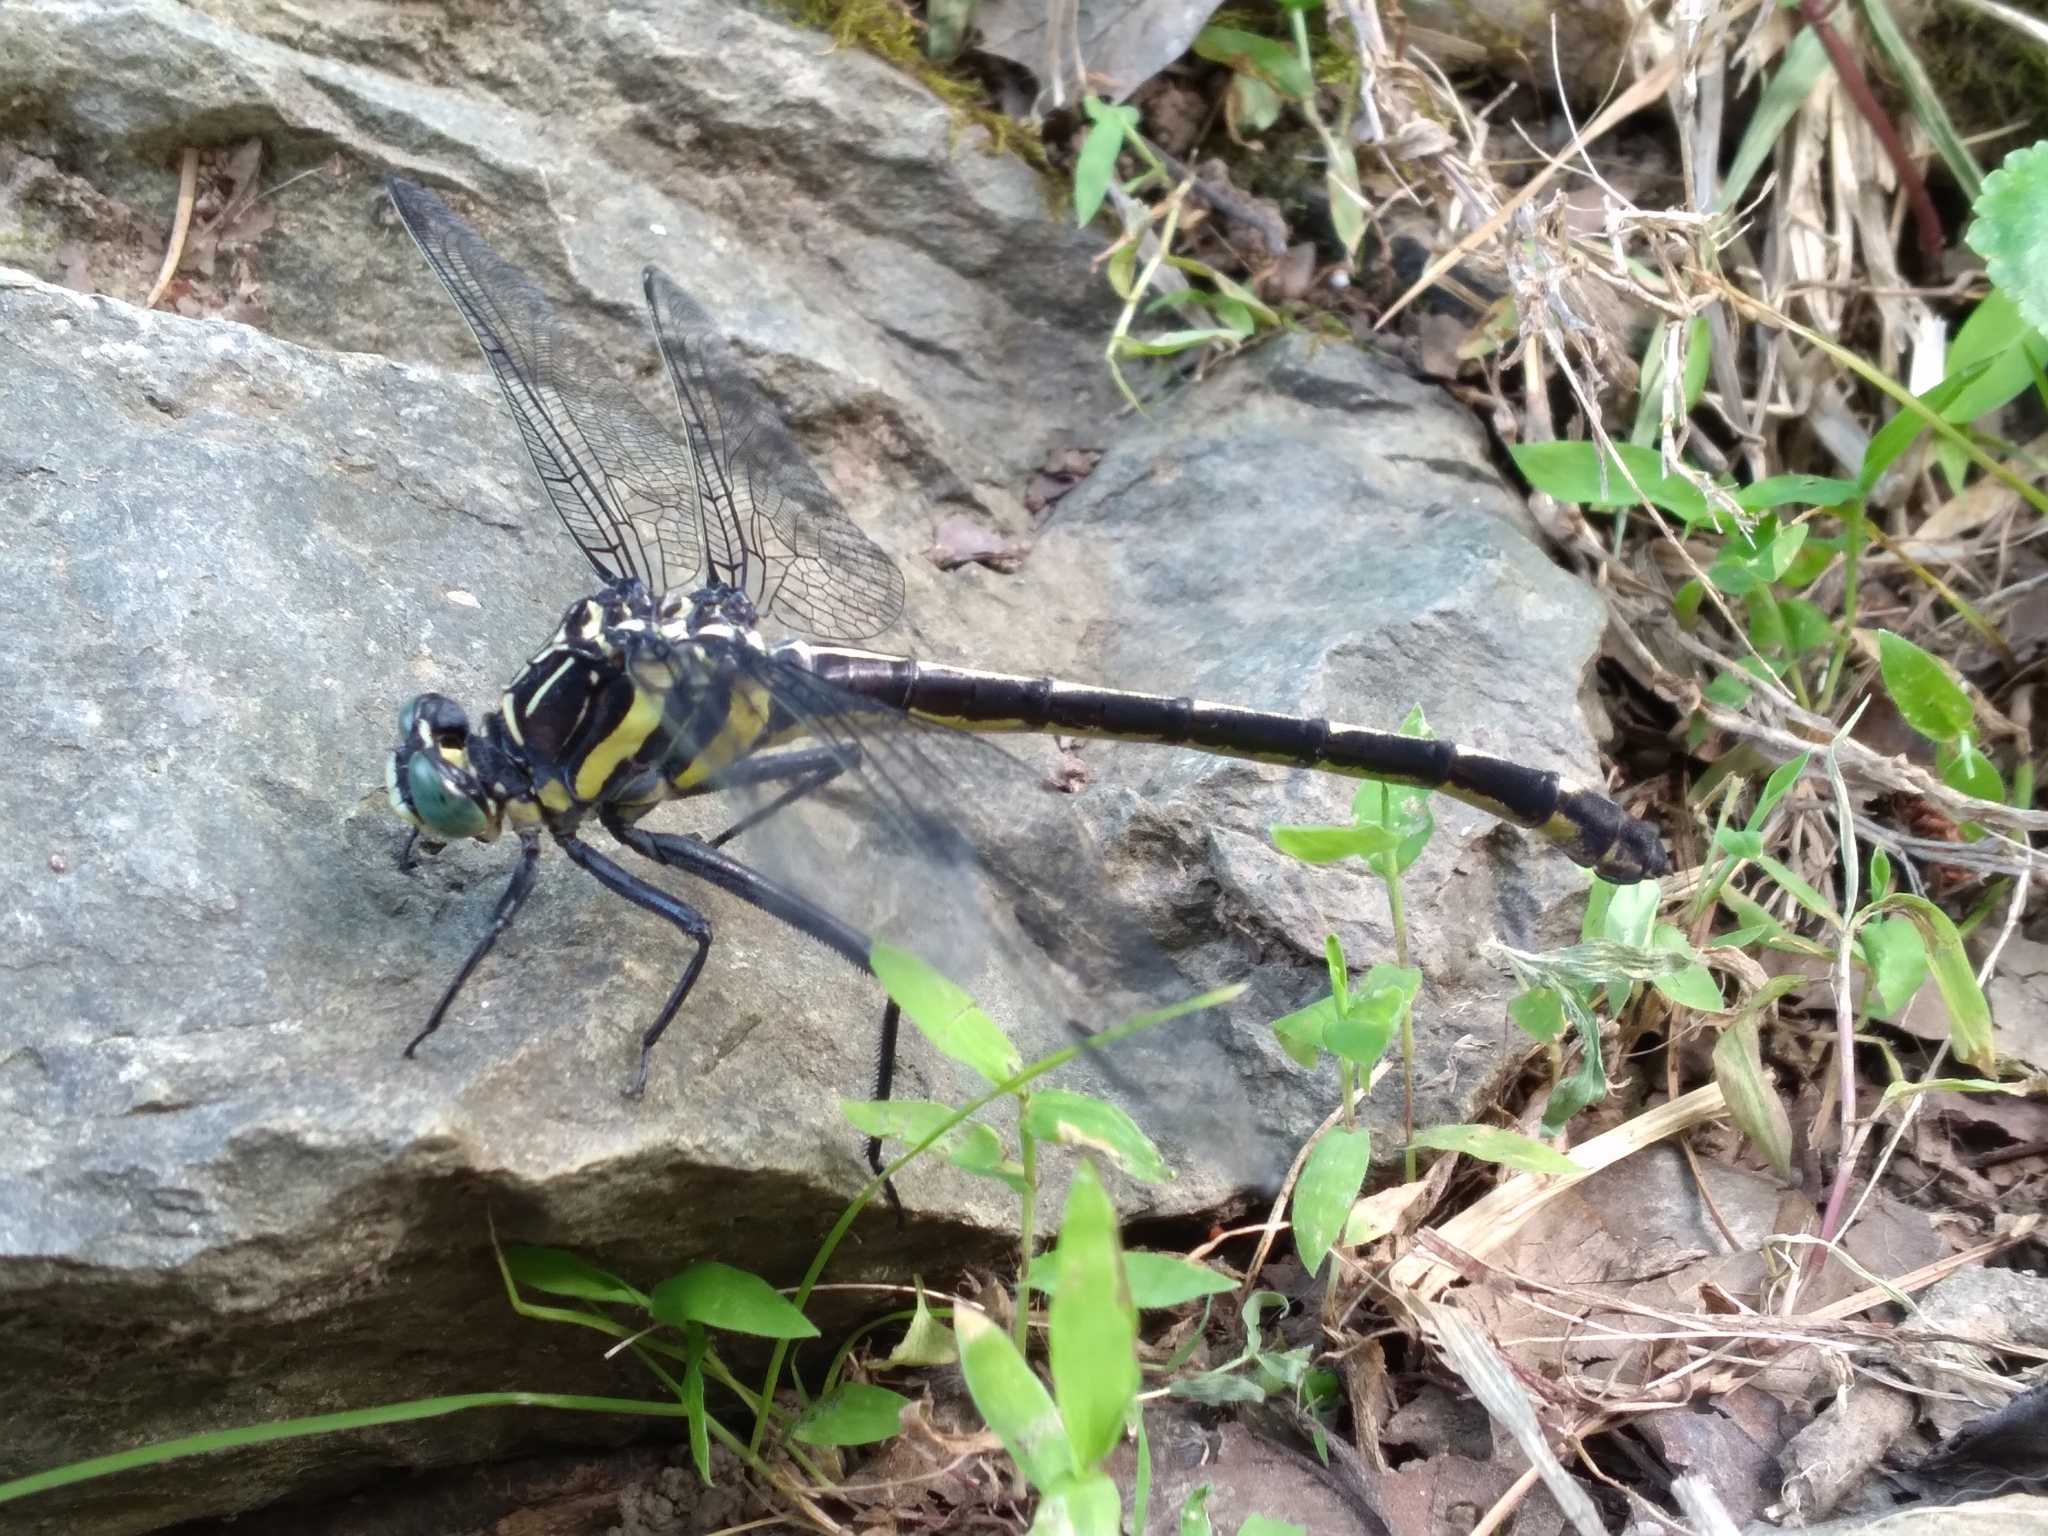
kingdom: Animalia
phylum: Arthropoda
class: Insecta
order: Odonata
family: Gomphidae
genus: Hagenius
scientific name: Hagenius brevistylus
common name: Dragonhunter
